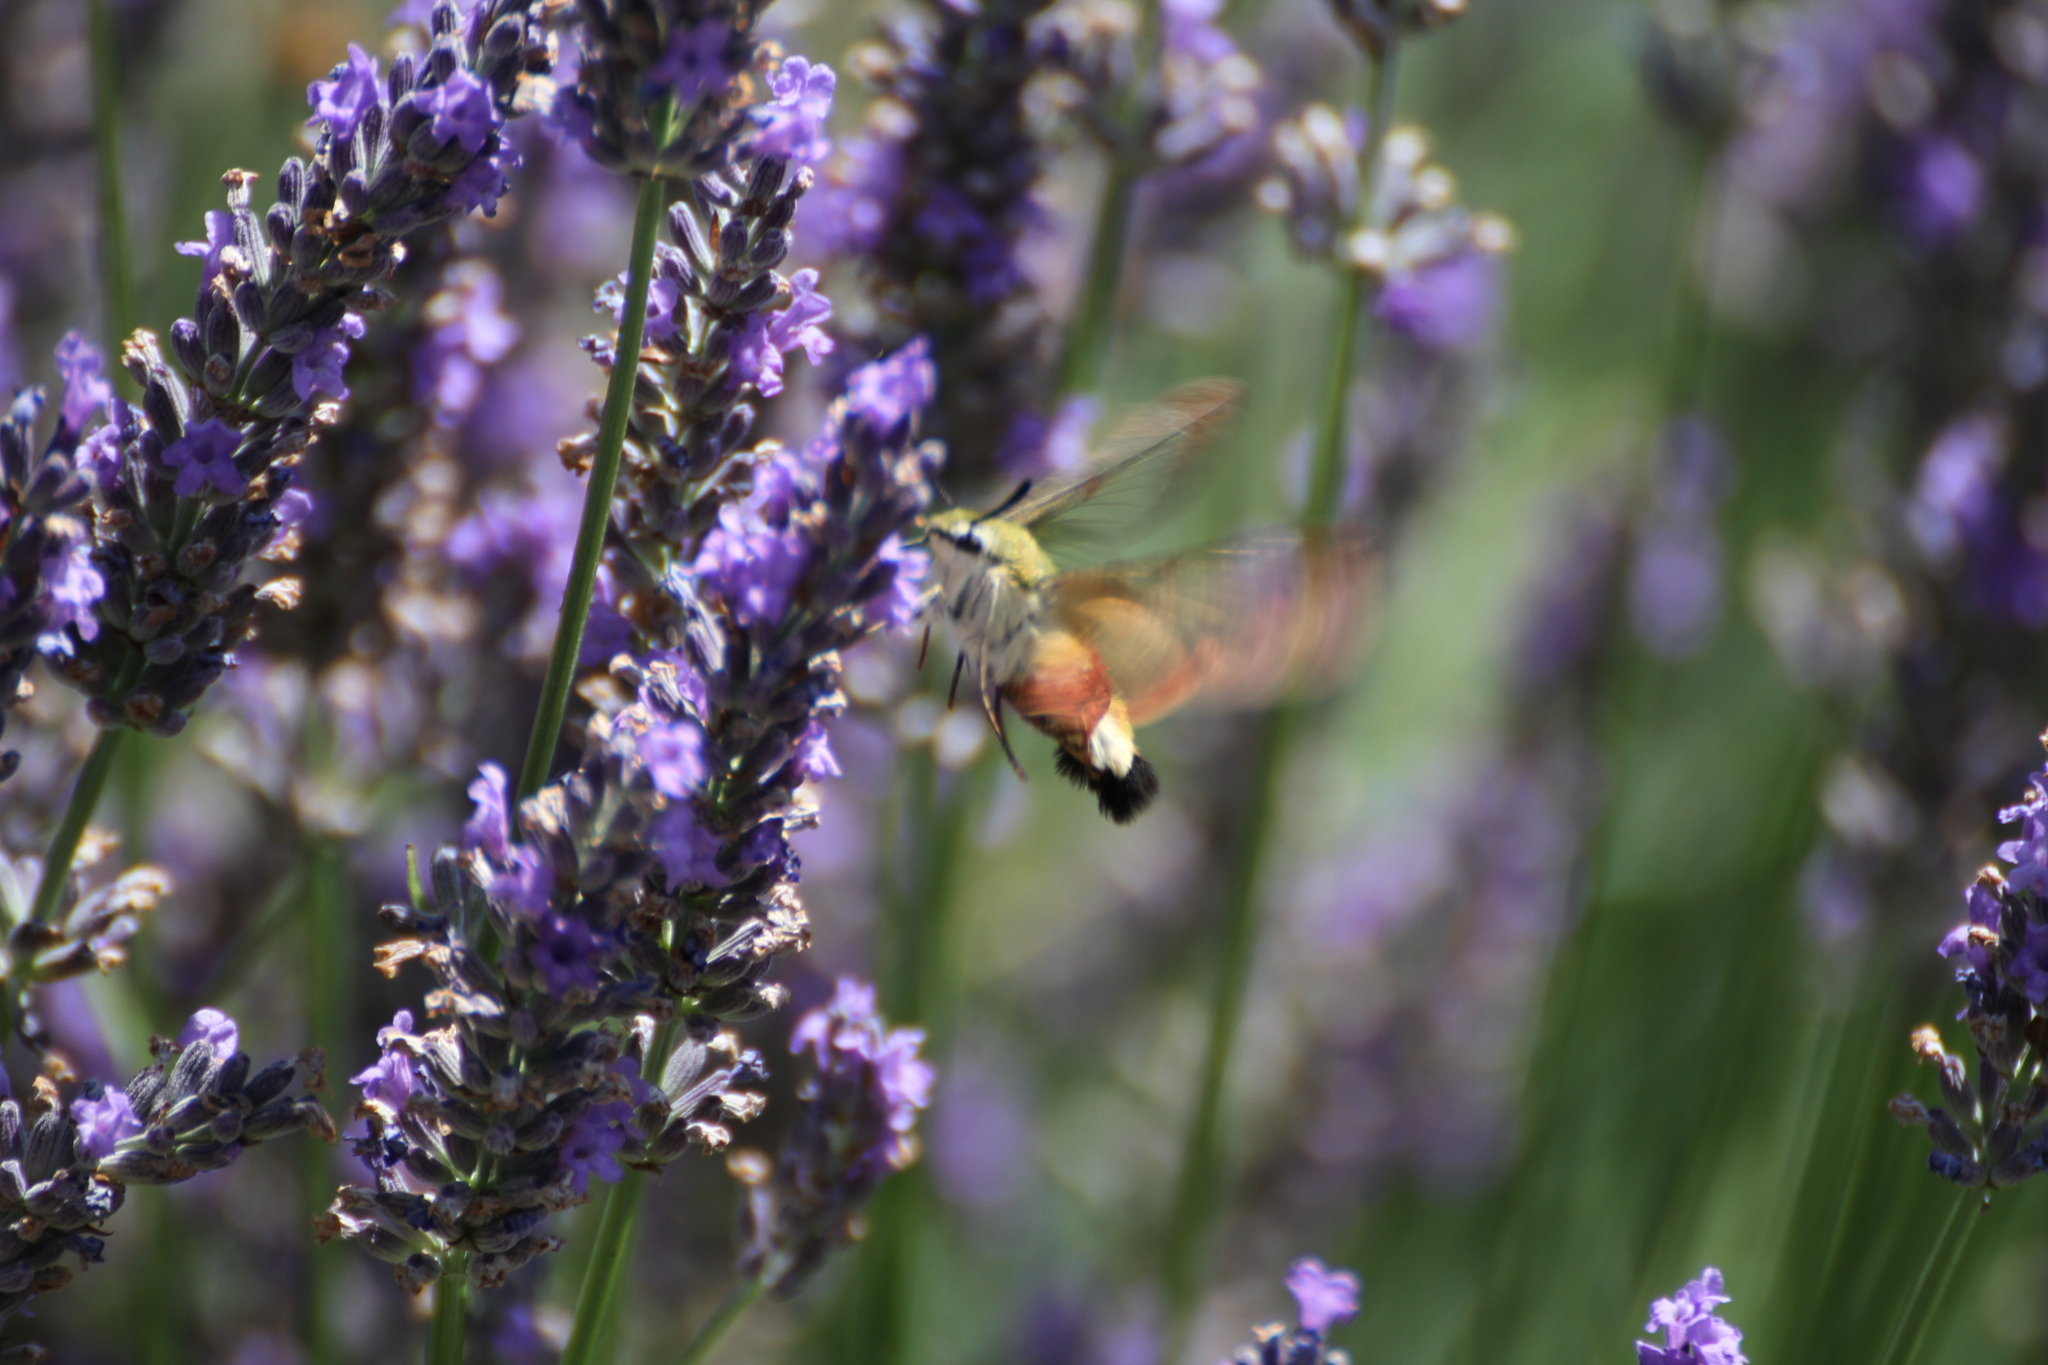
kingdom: Animalia
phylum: Arthropoda
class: Insecta
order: Lepidoptera
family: Sphingidae
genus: Hemaris
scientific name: Hemaris fuciformis
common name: Broad-bordered bee hawk-moth
